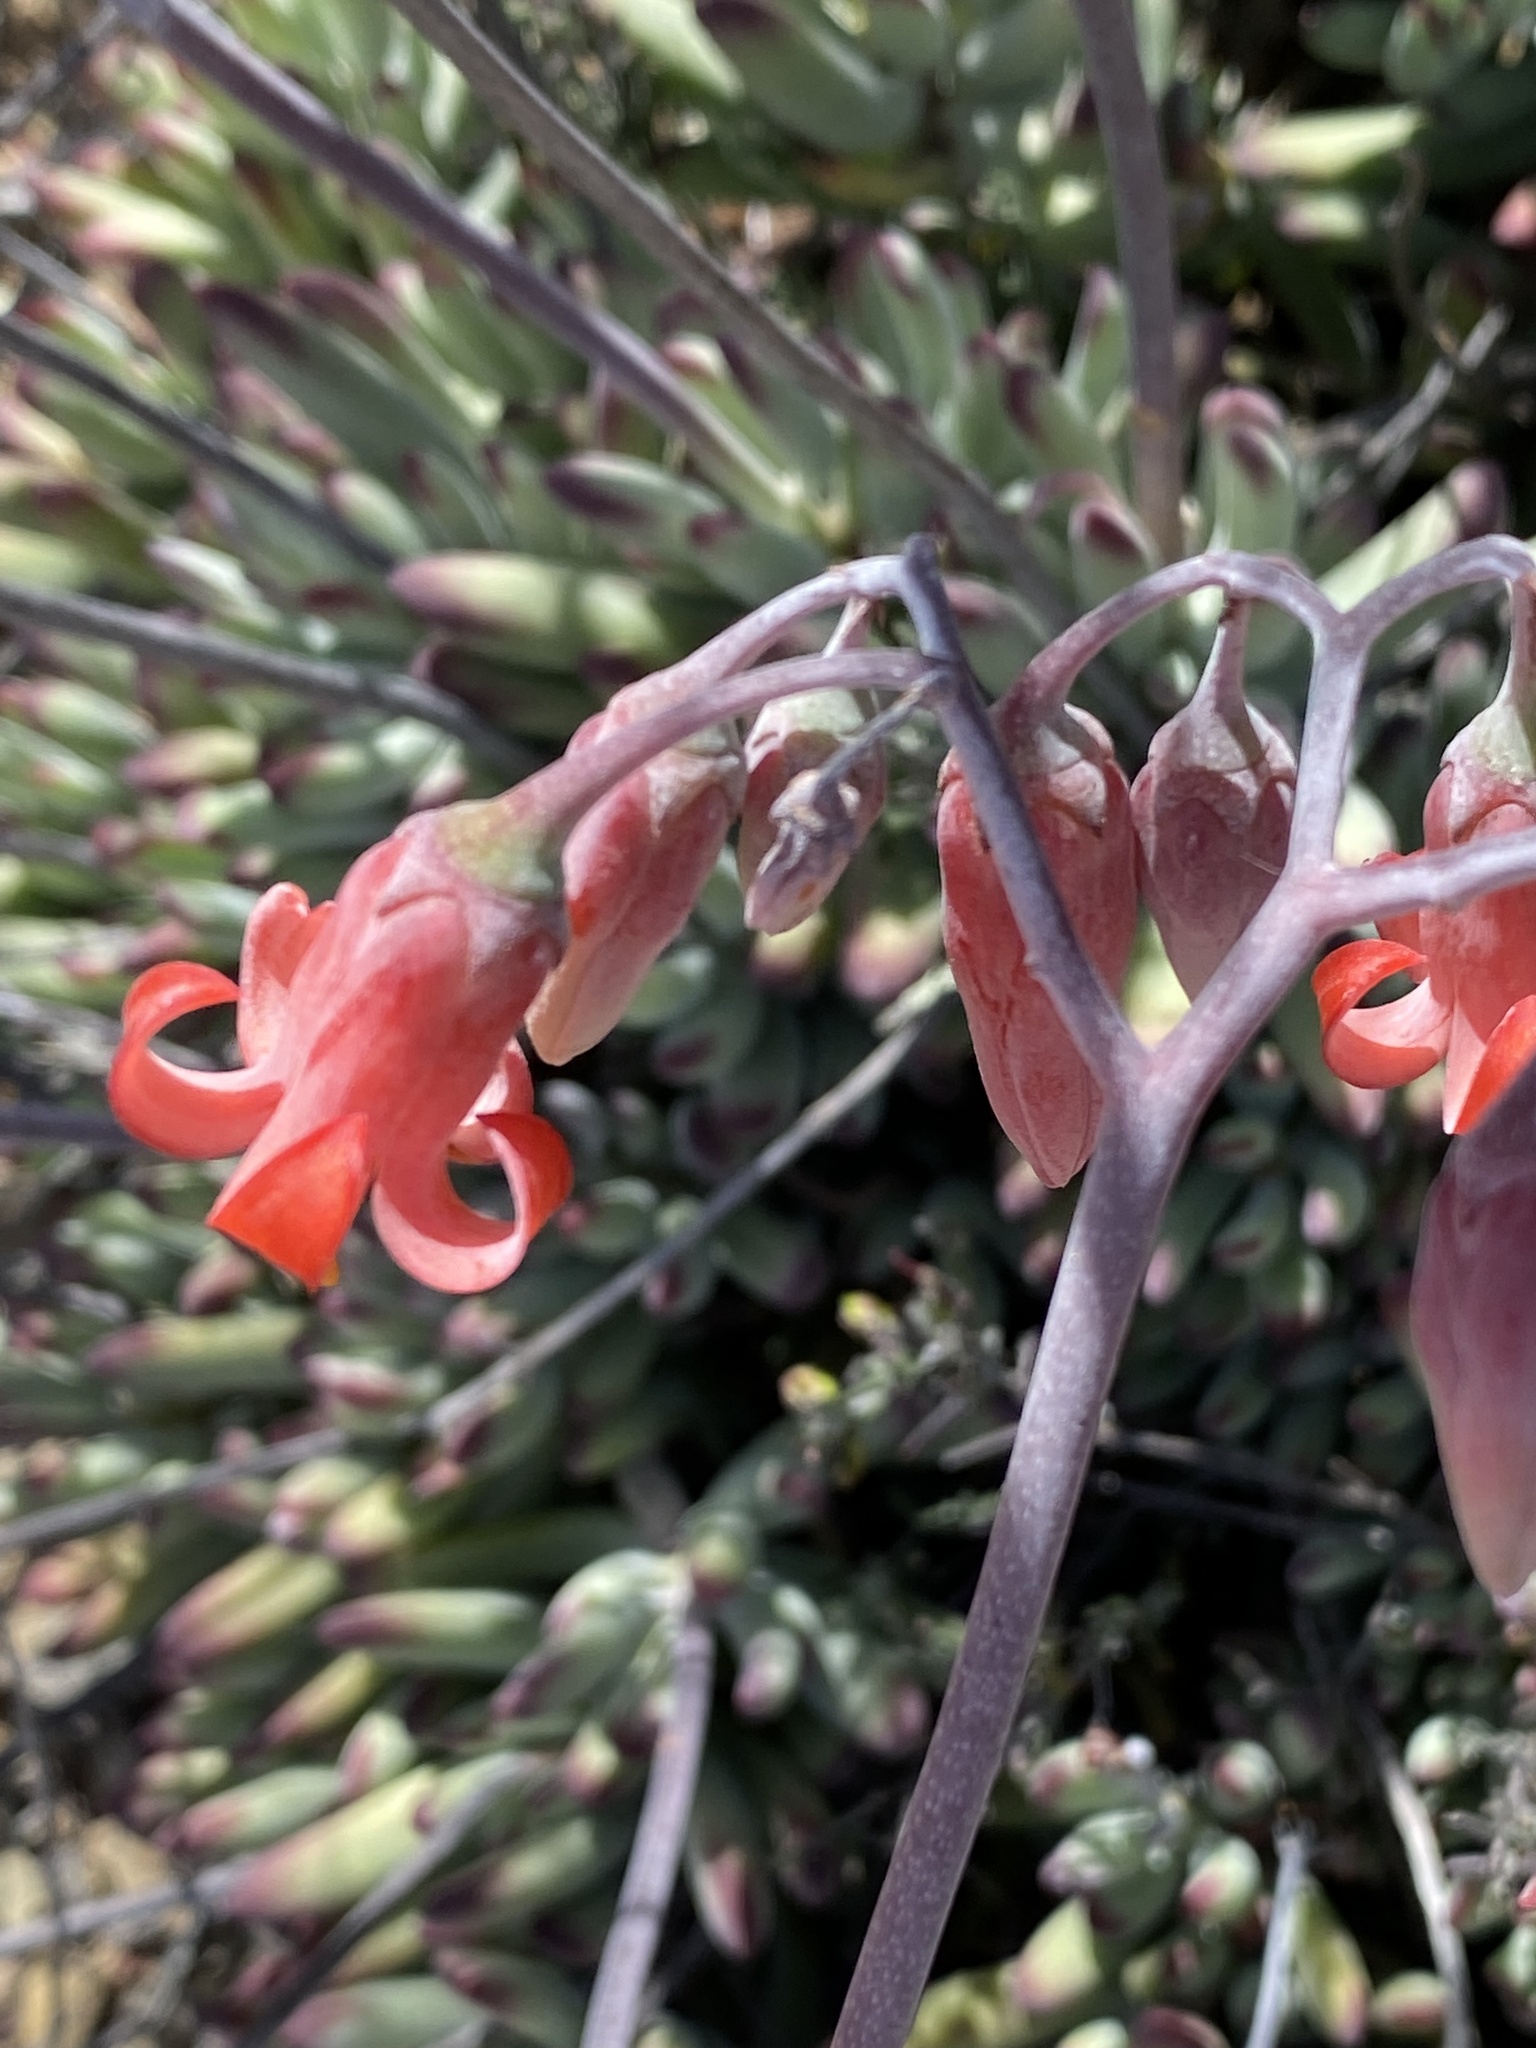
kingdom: Plantae
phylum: Tracheophyta
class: Magnoliopsida
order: Saxifragales
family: Crassulaceae
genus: Cotyledon
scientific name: Cotyledon orbiculata
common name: Pig's ear
